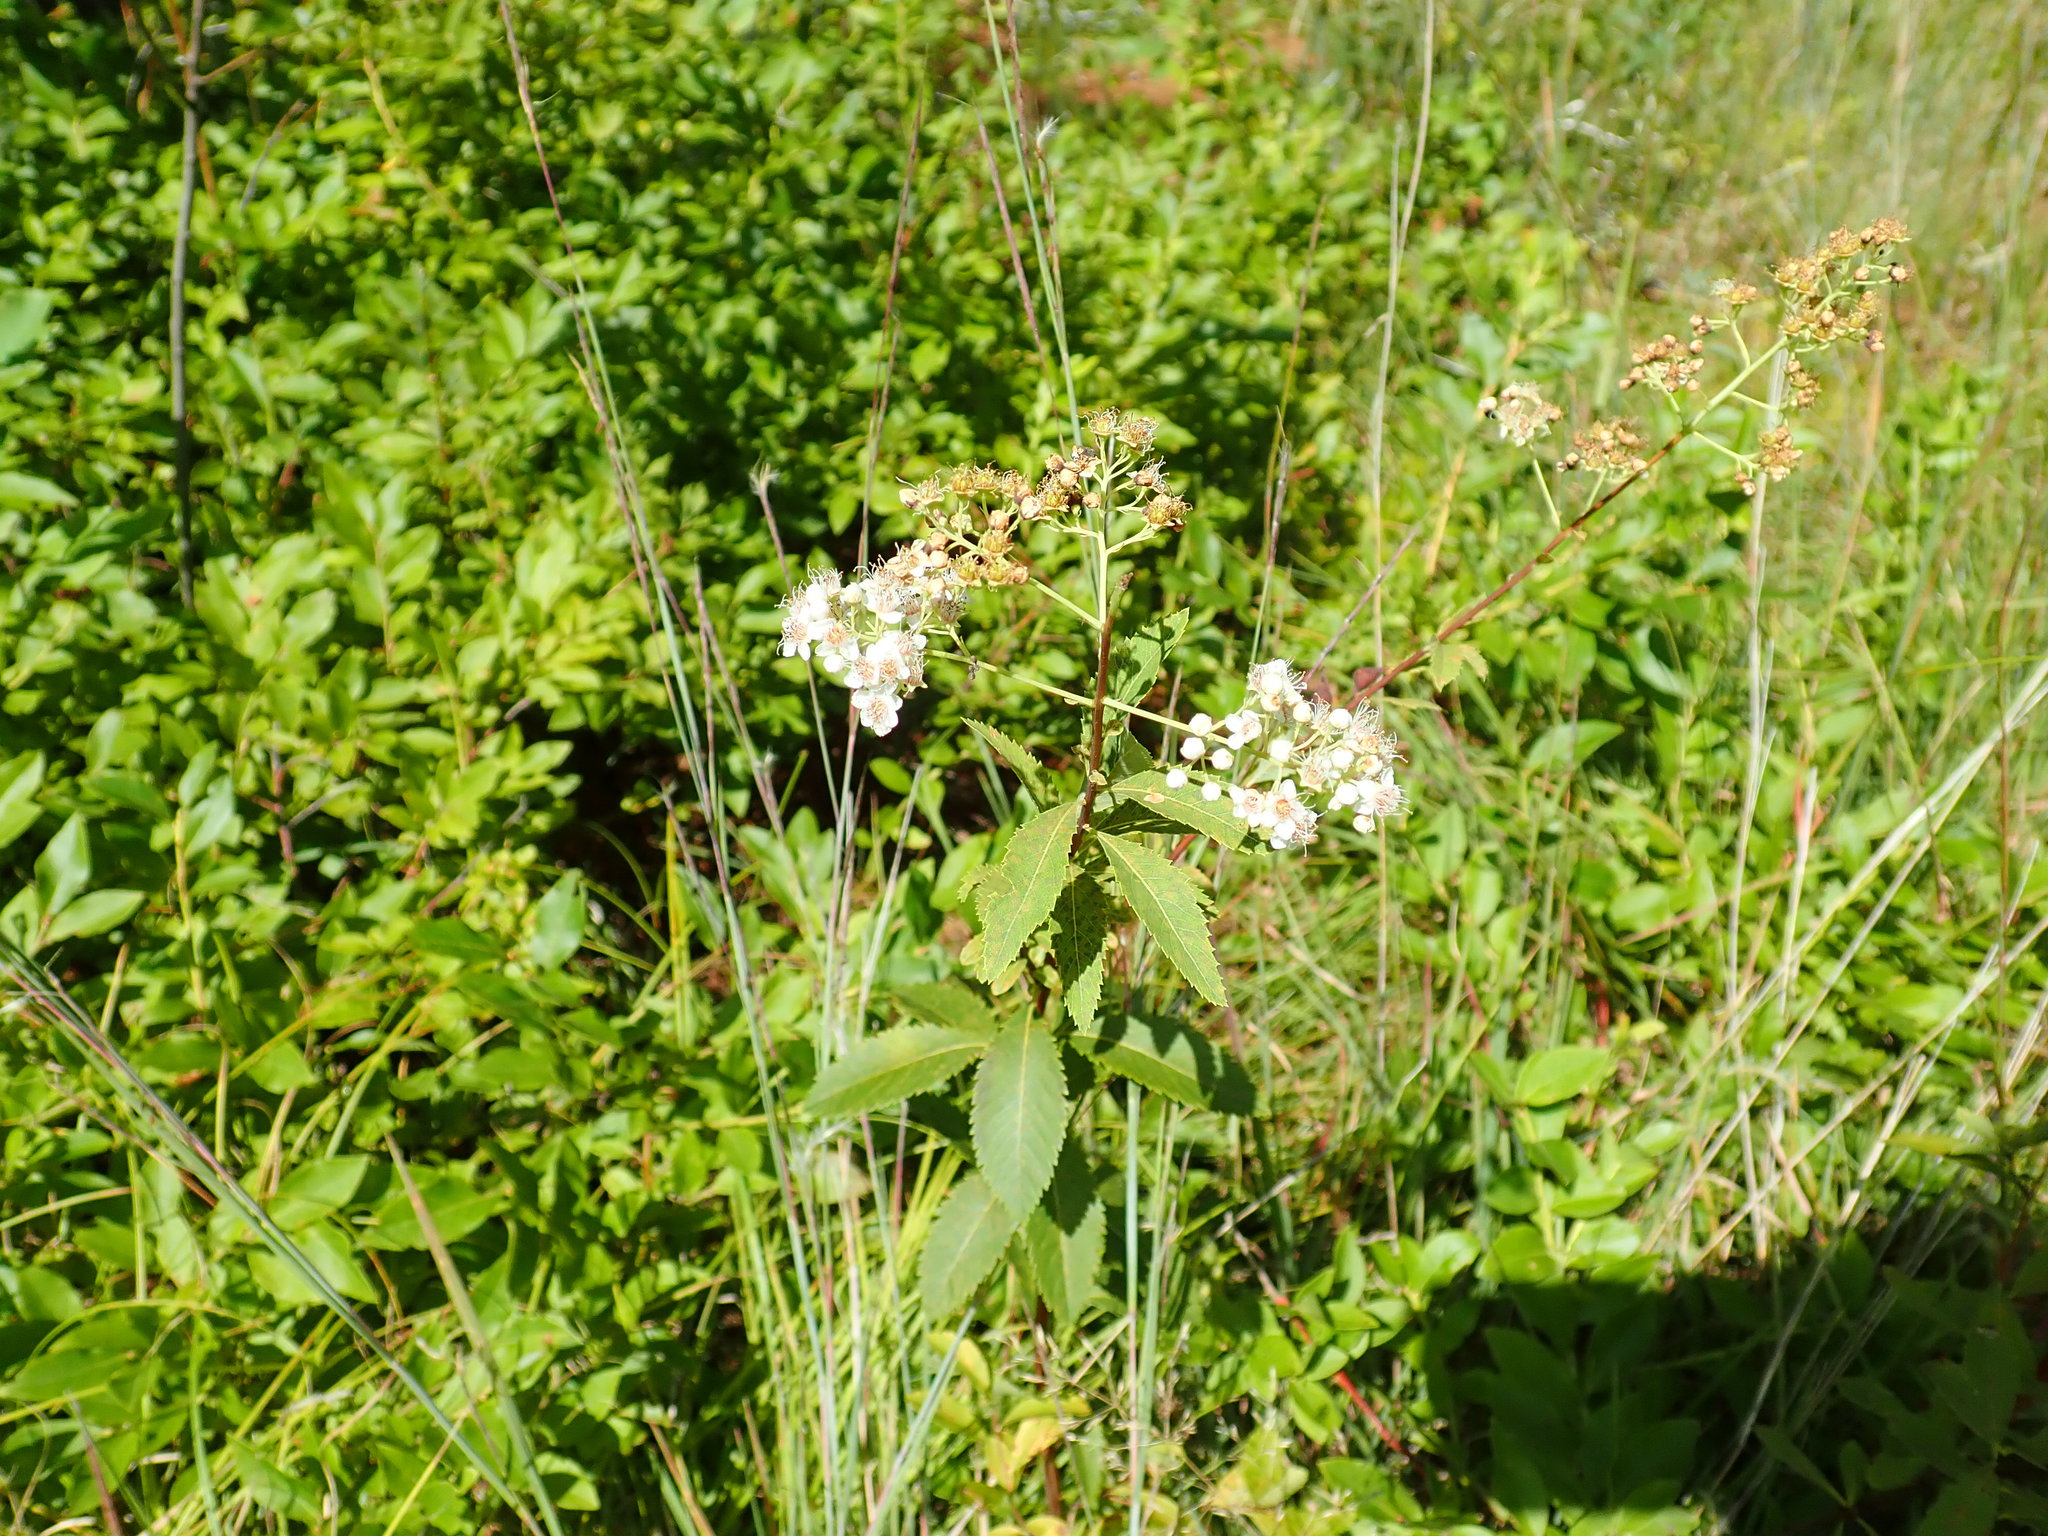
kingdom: Plantae
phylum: Tracheophyta
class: Magnoliopsida
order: Rosales
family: Rosaceae
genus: Spiraea
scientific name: Spiraea alba
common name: Pale bridewort
